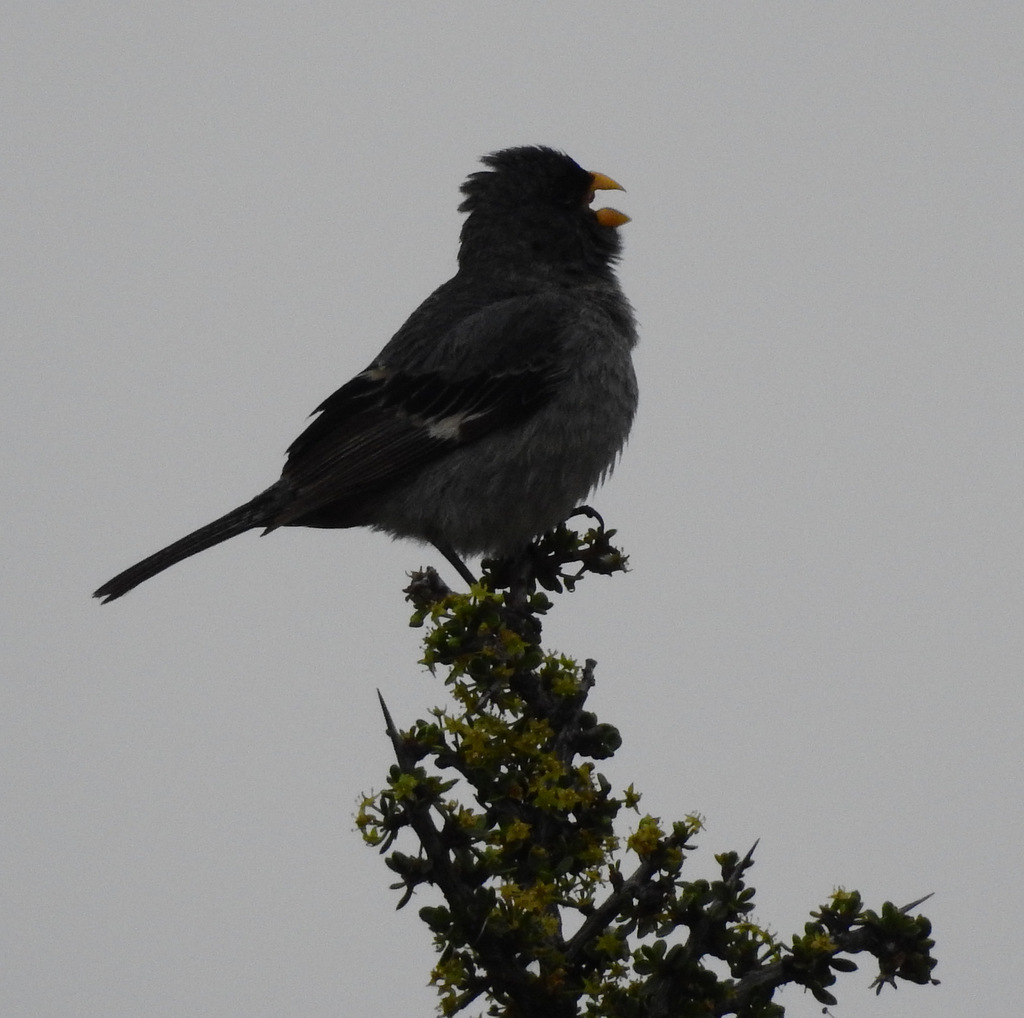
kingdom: Animalia
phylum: Chordata
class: Aves
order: Passeriformes
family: Thraupidae
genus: Rhopospina
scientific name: Rhopospina fruticeti
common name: Mourning sierra finch
